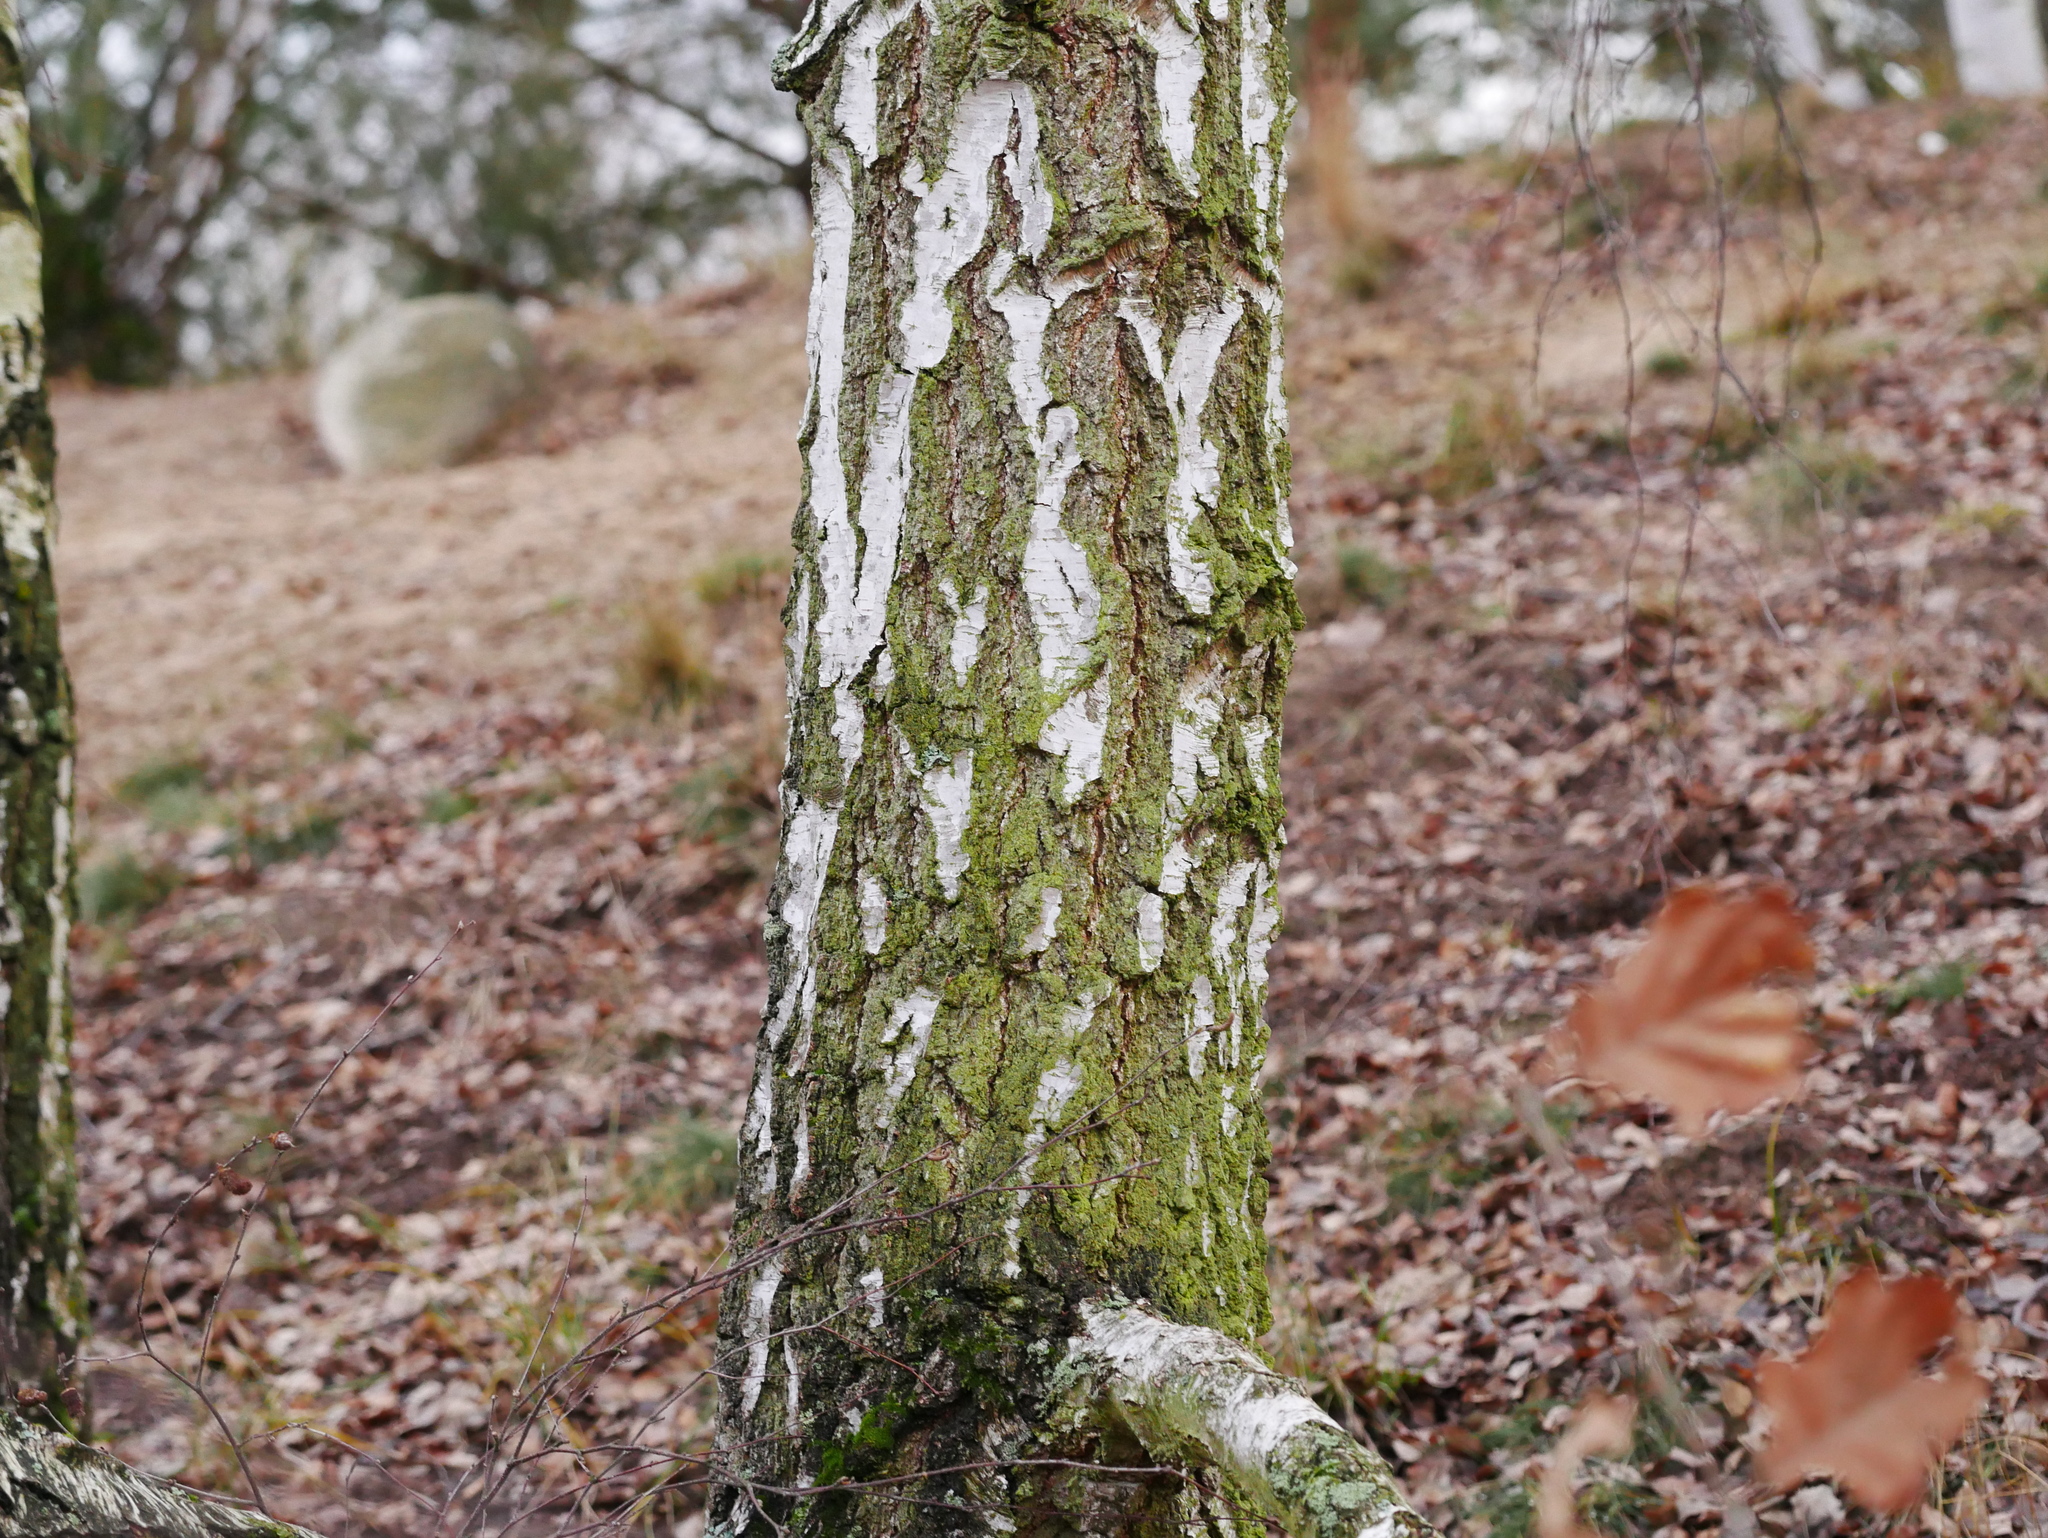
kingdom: Plantae
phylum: Tracheophyta
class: Magnoliopsida
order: Fagales
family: Betulaceae
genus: Betula
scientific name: Betula pendula
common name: Silver birch
